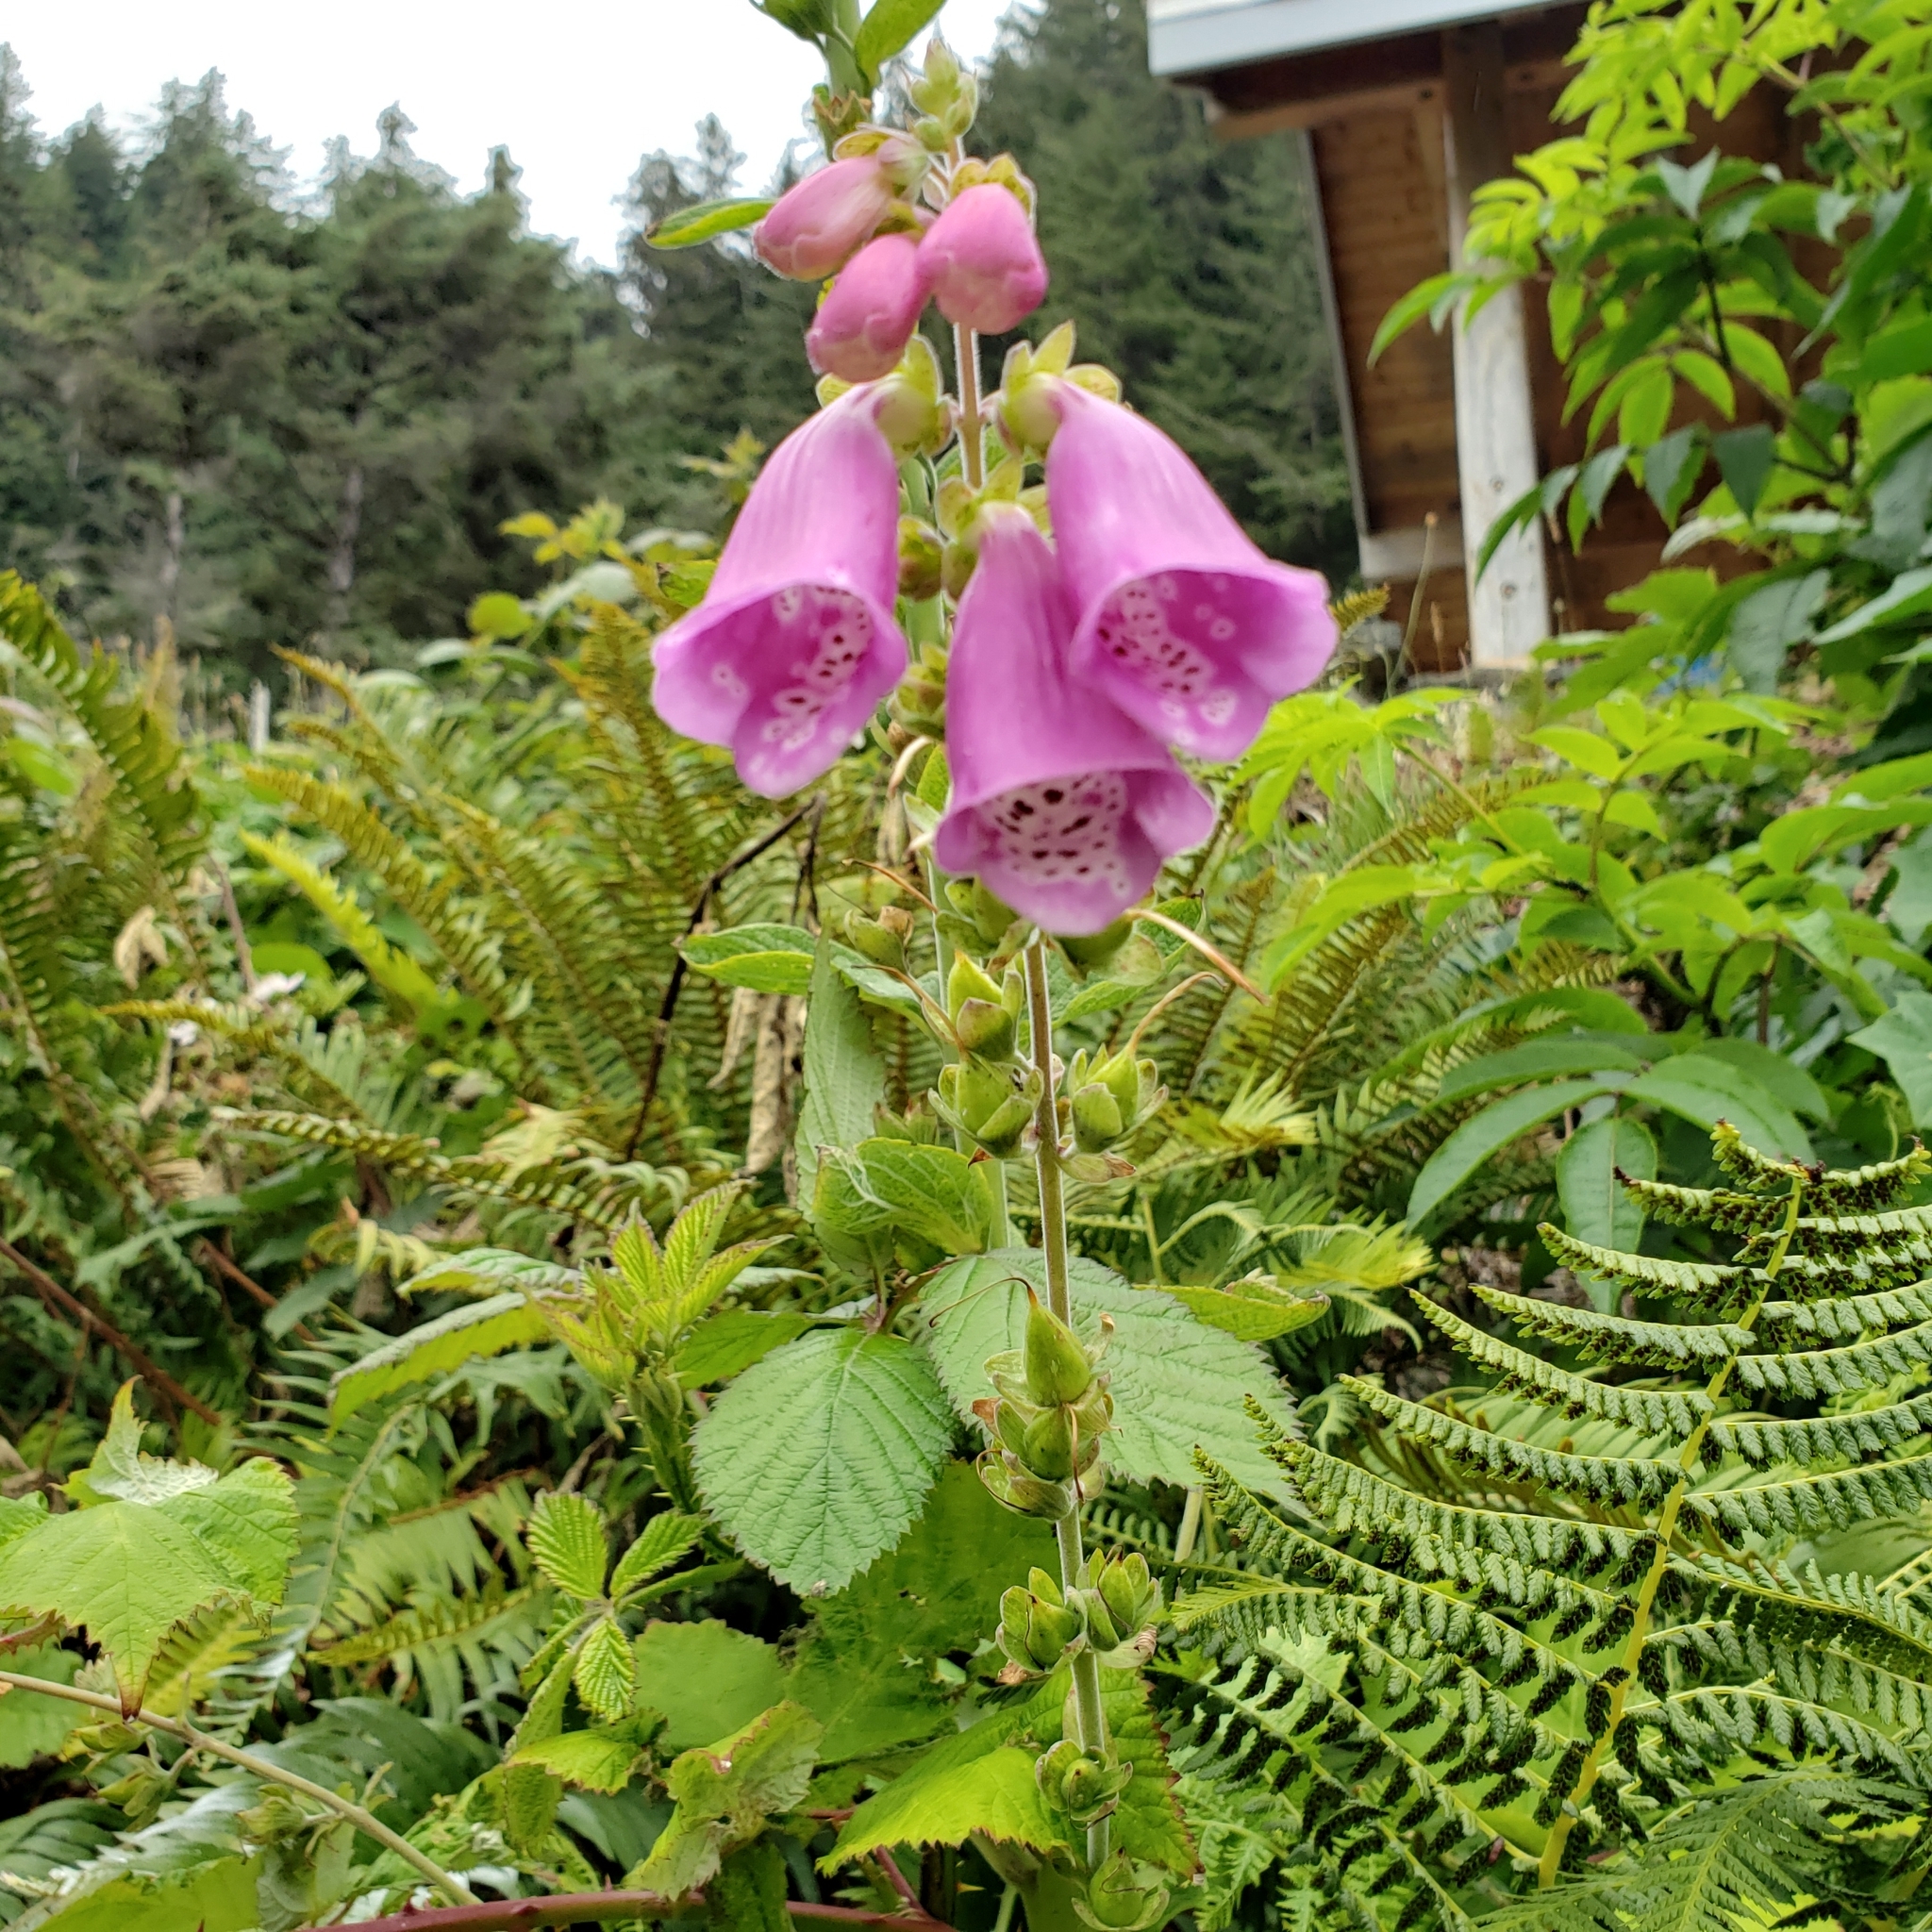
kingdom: Plantae
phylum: Tracheophyta
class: Magnoliopsida
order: Lamiales
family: Plantaginaceae
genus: Digitalis
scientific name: Digitalis purpurea
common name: Foxglove
